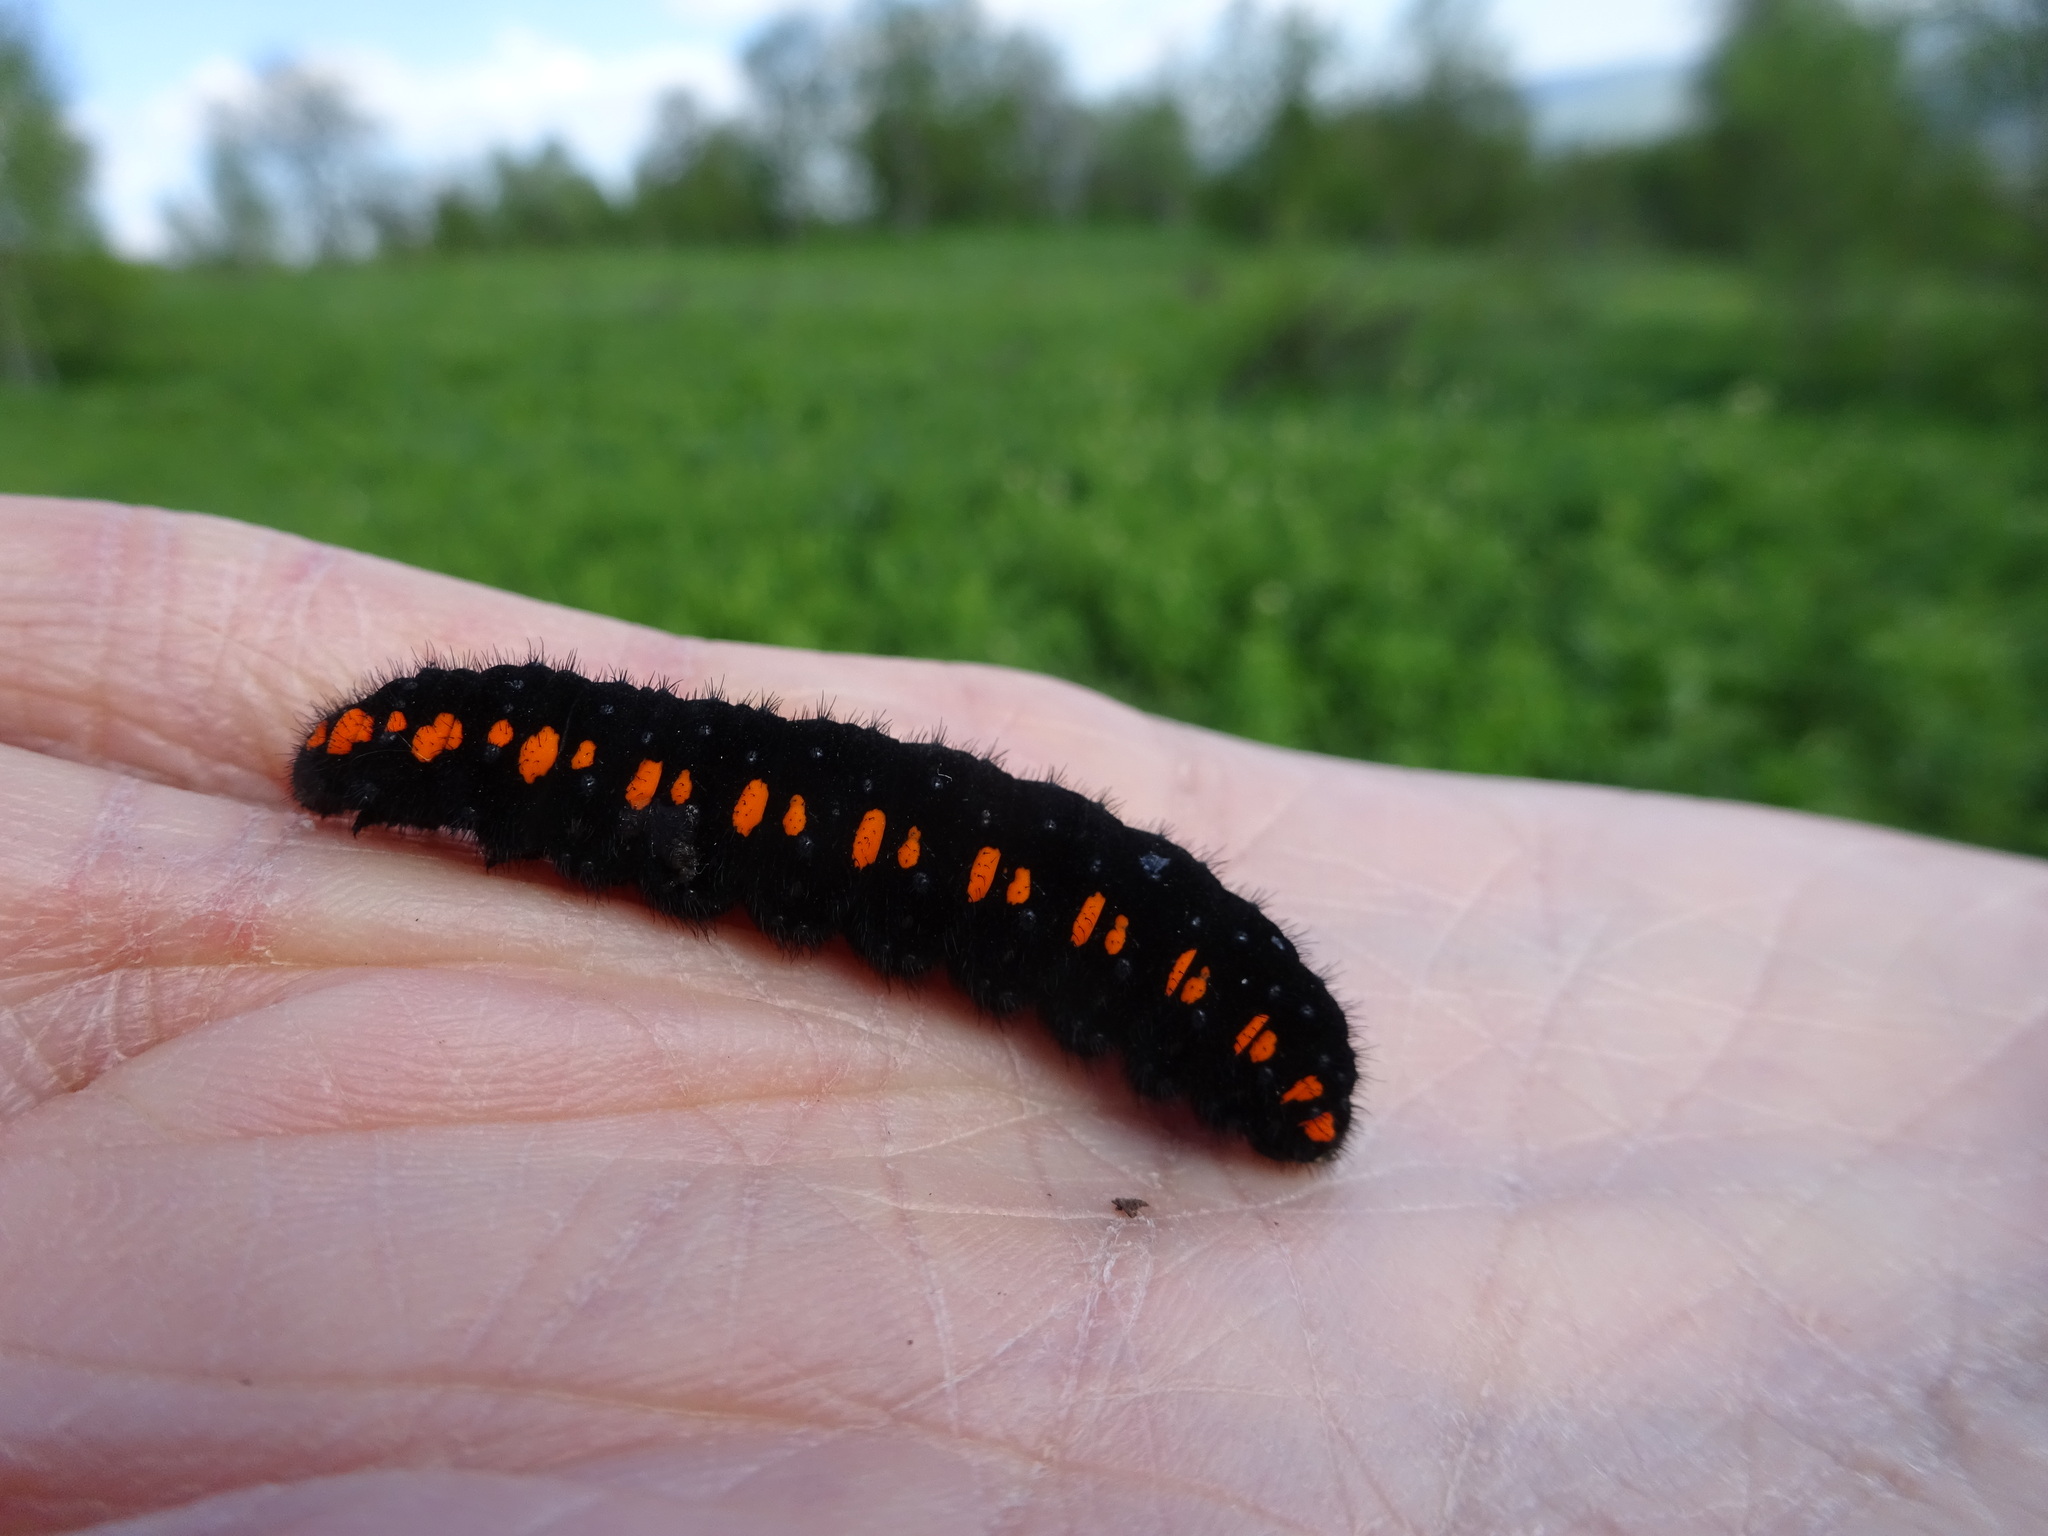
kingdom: Animalia
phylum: Arthropoda
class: Insecta
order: Lepidoptera
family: Papilionidae
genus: Parnassius
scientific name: Parnassius apollo
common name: Apollo
